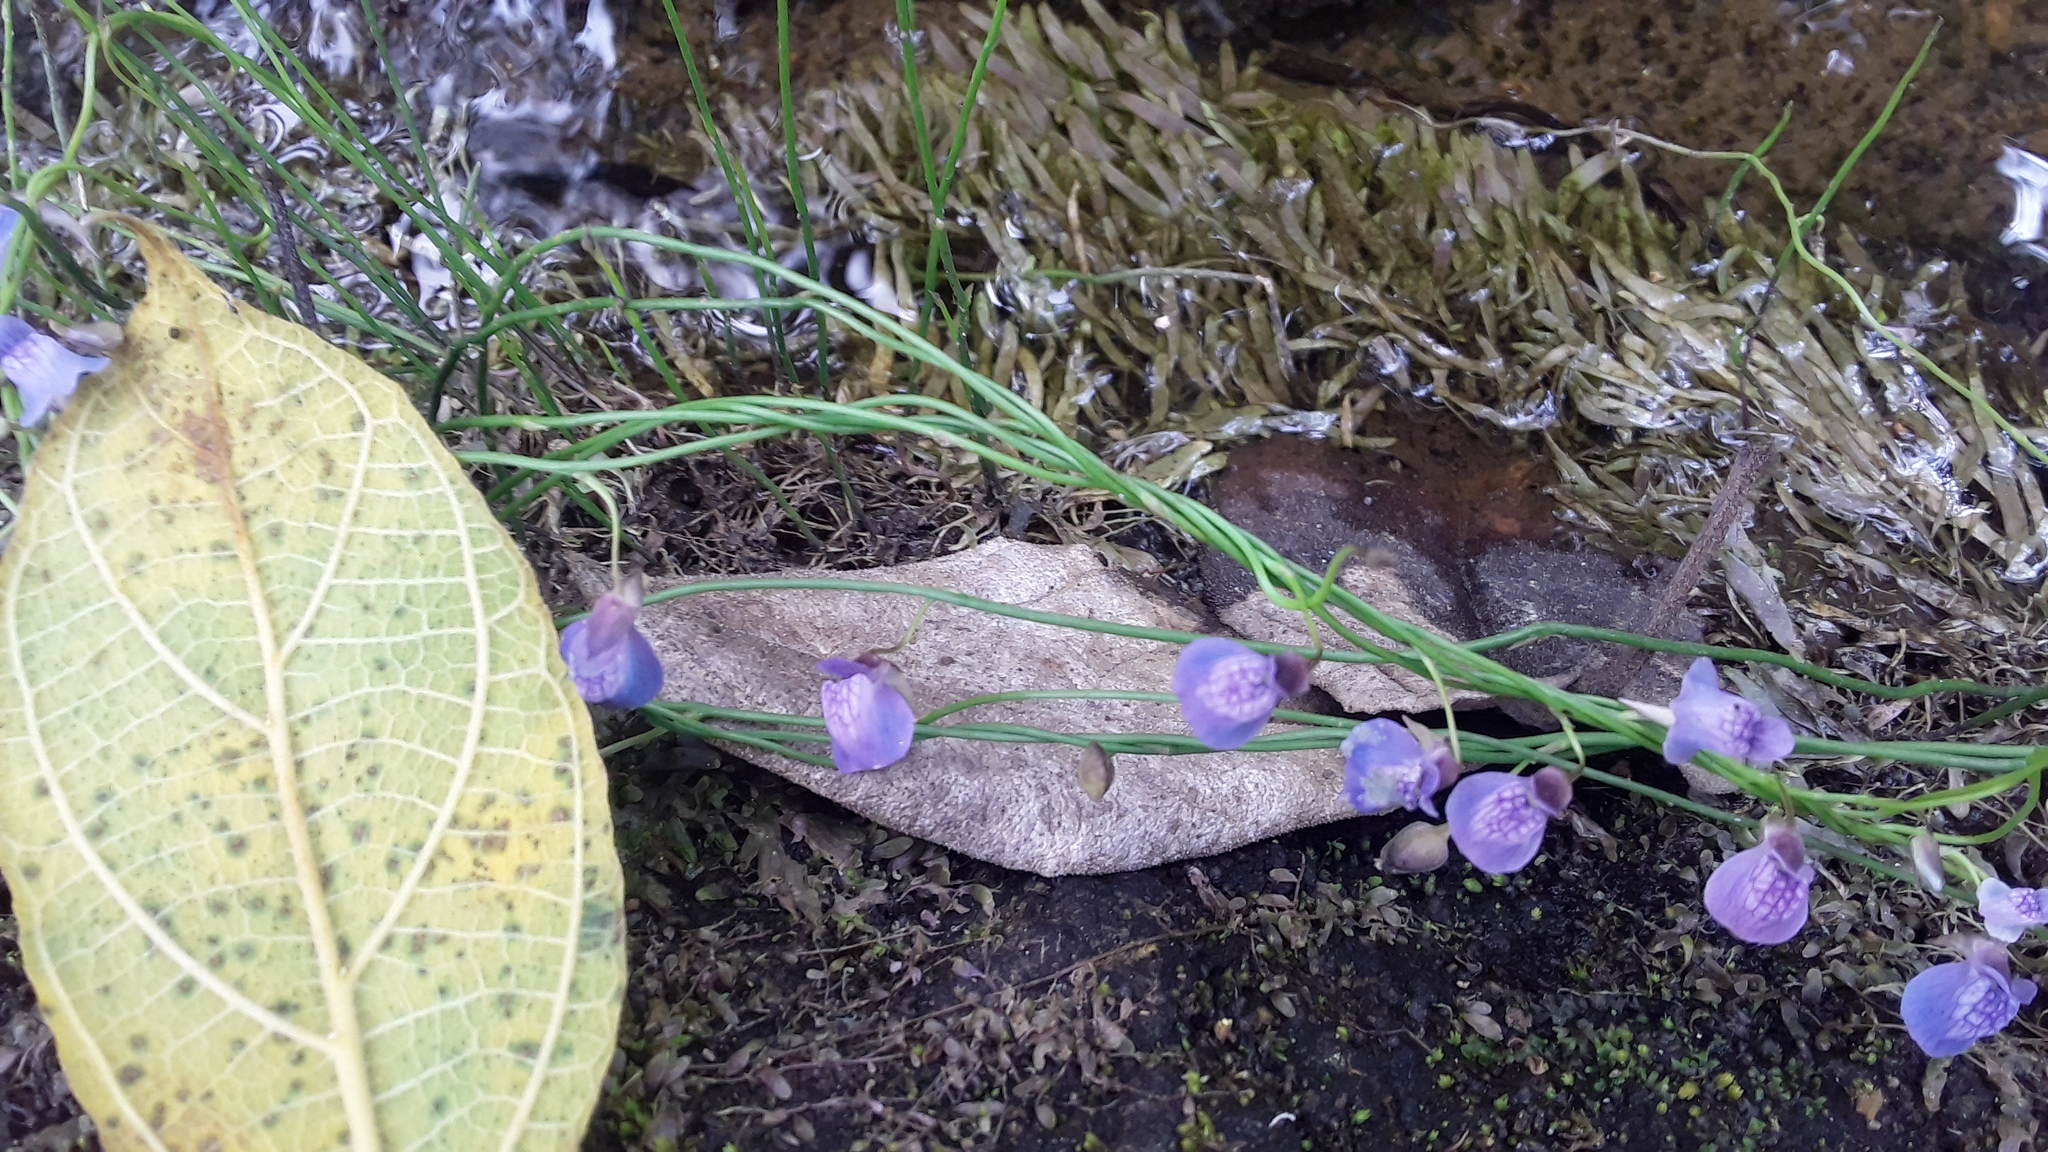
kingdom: Plantae
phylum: Tracheophyta
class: Magnoliopsida
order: Lamiales
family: Lentibulariaceae
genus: Utricularia
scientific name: Utricularia reticulata
